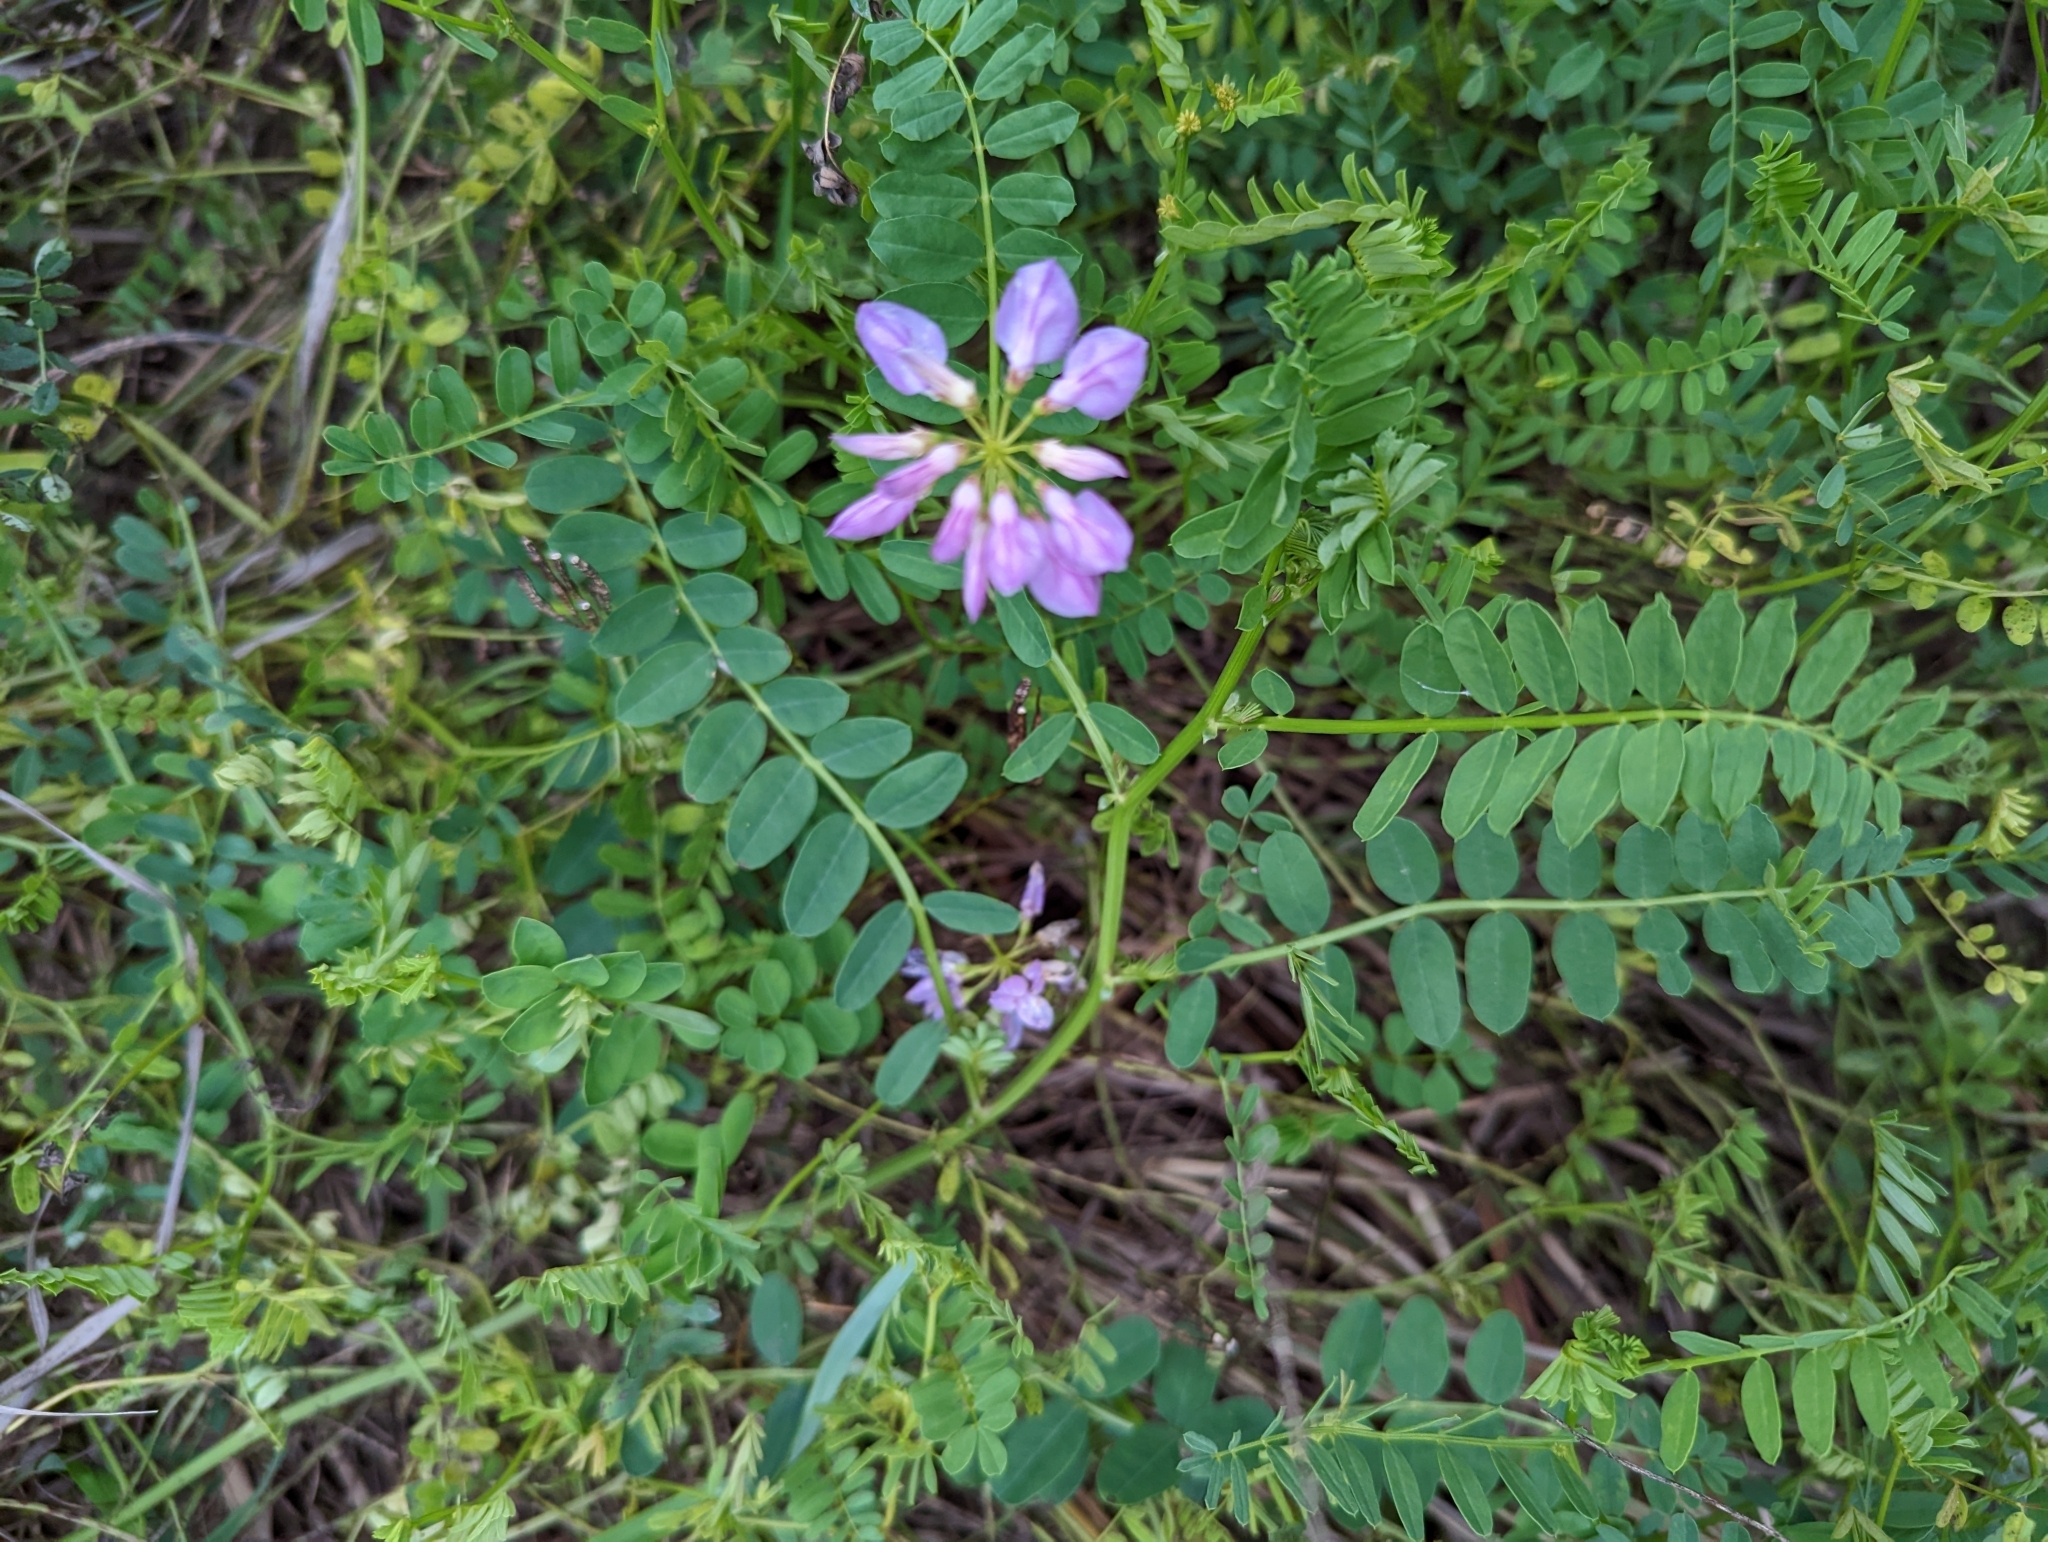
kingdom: Plantae
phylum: Tracheophyta
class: Magnoliopsida
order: Fabales
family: Fabaceae
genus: Coronilla
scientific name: Coronilla varia
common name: Crownvetch
